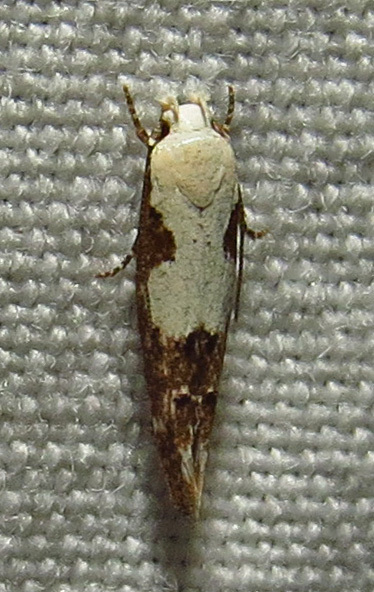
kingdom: Animalia
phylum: Arthropoda
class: Insecta
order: Lepidoptera
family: Momphidae
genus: Mompha
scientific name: Mompha circumscriptella
